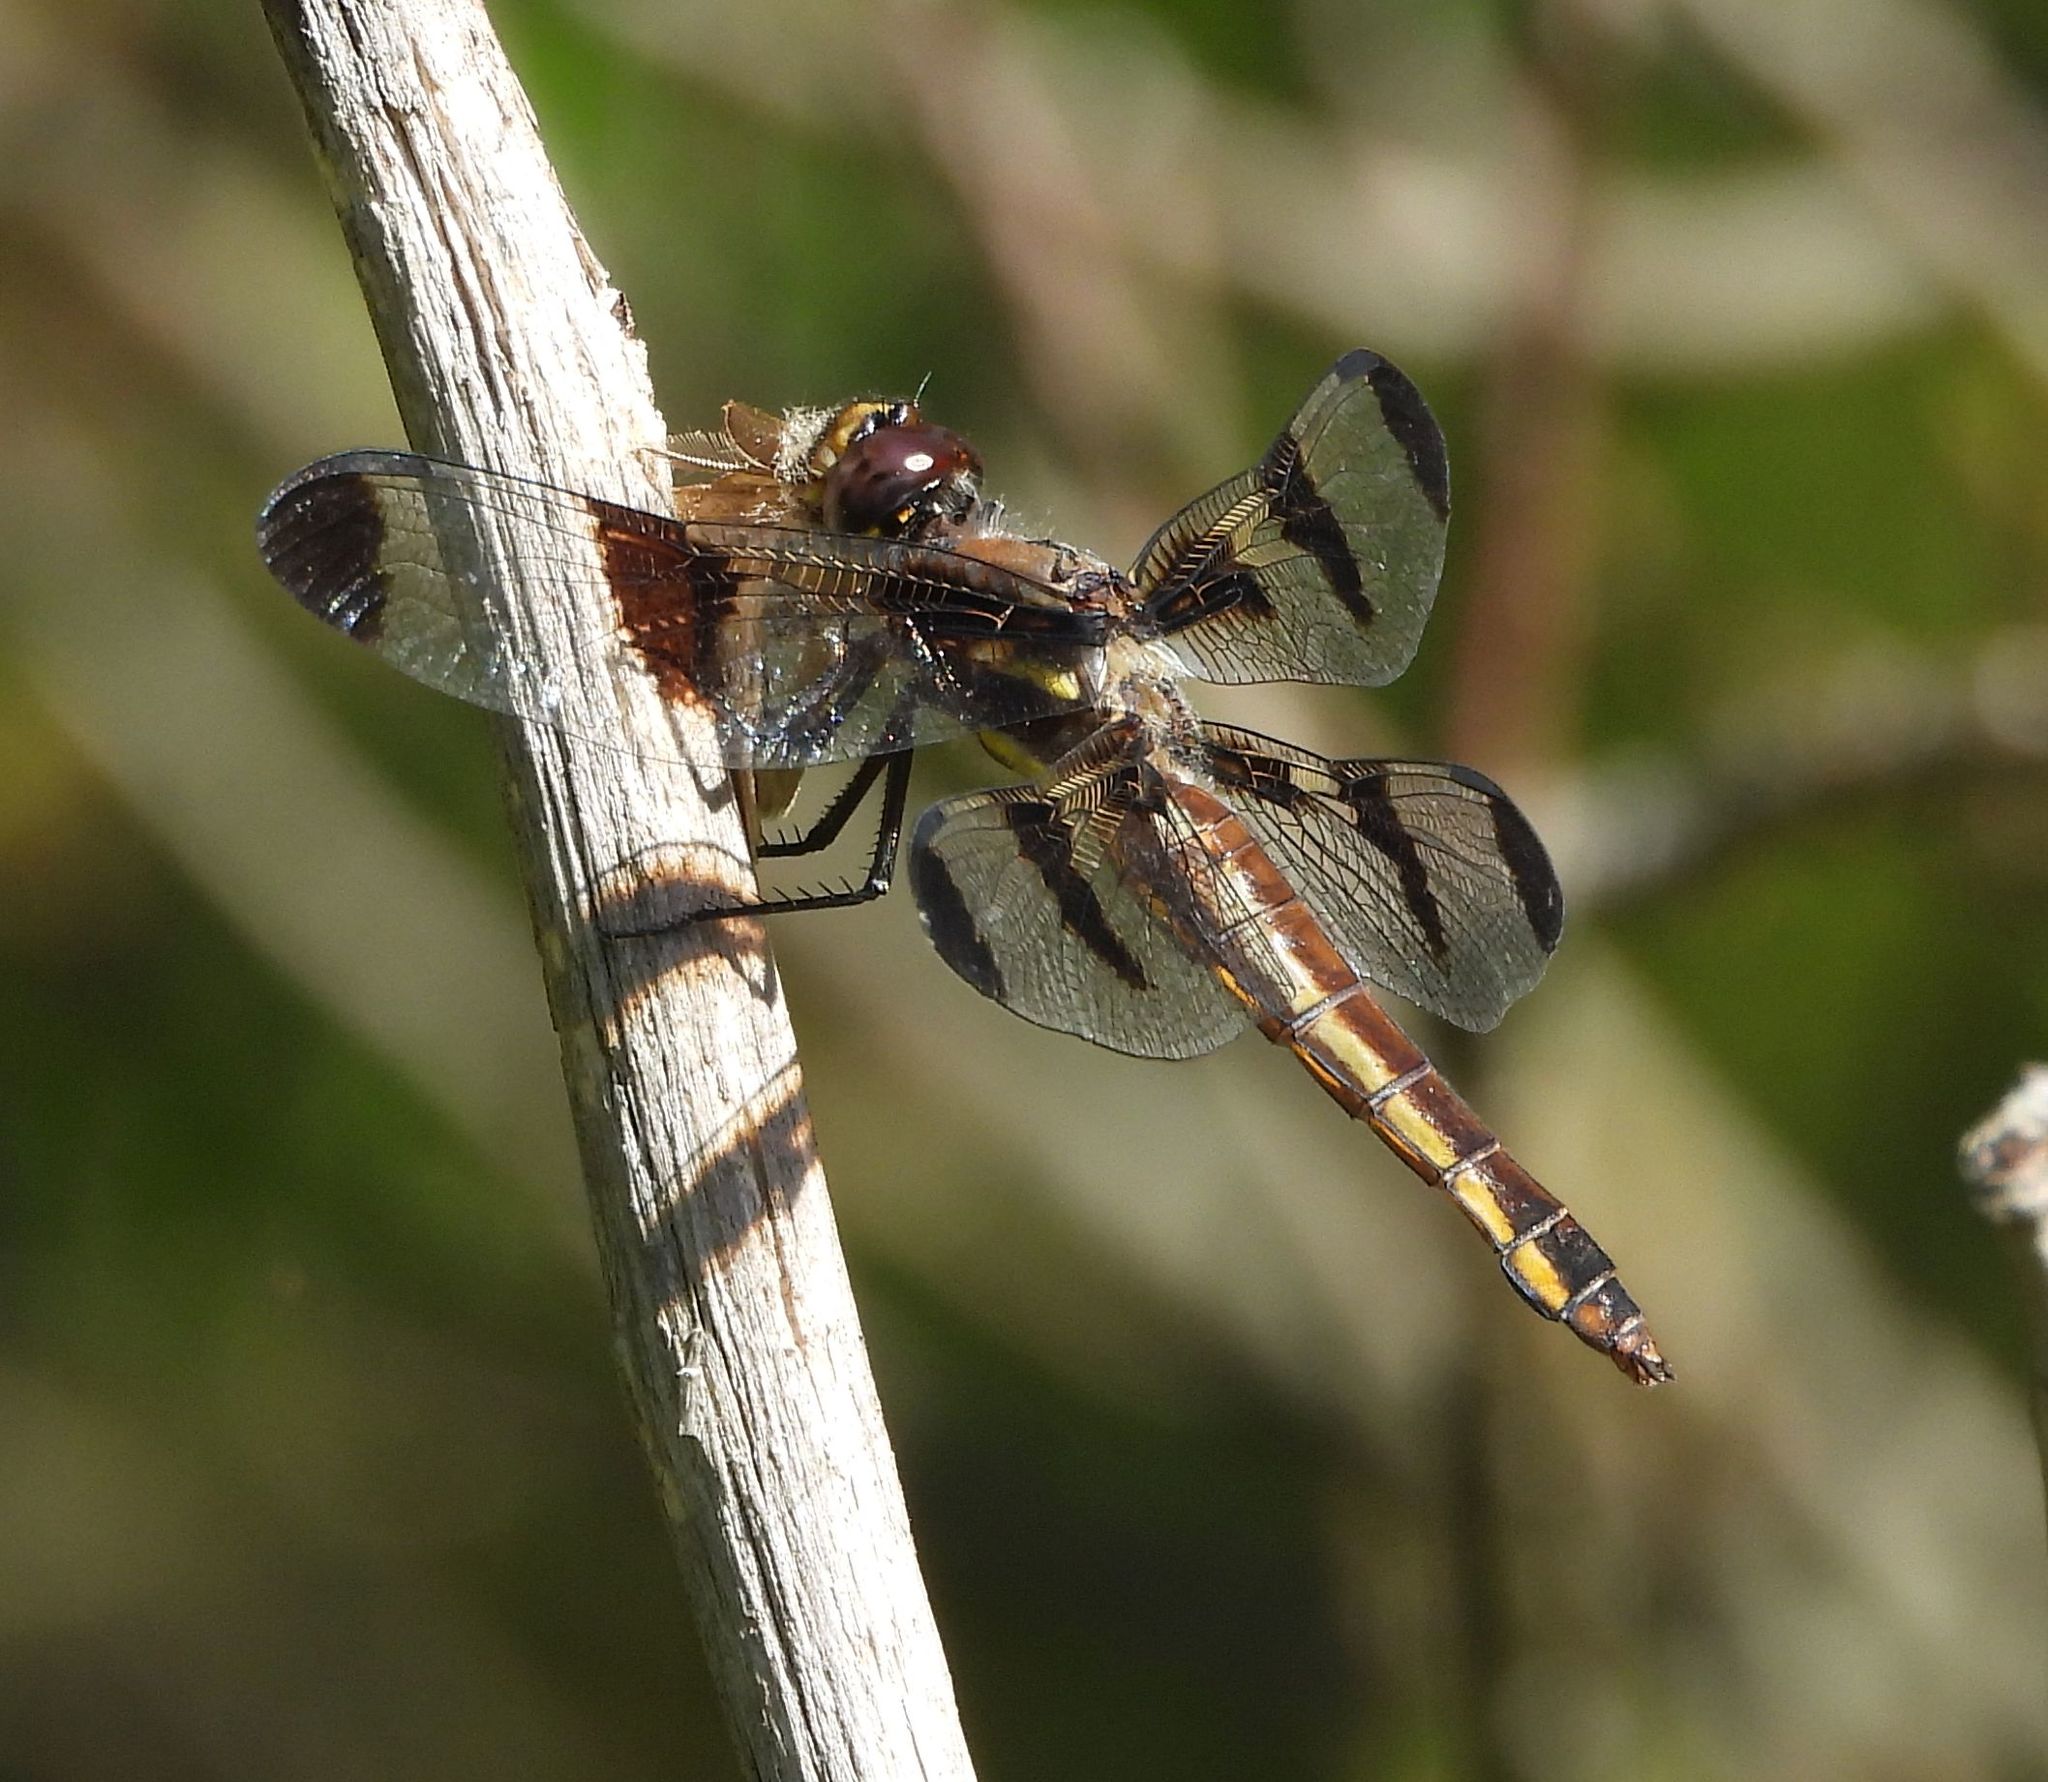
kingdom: Animalia
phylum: Arthropoda
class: Insecta
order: Odonata
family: Libellulidae
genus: Libellula
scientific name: Libellula pulchella
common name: Twelve-spotted skimmer
